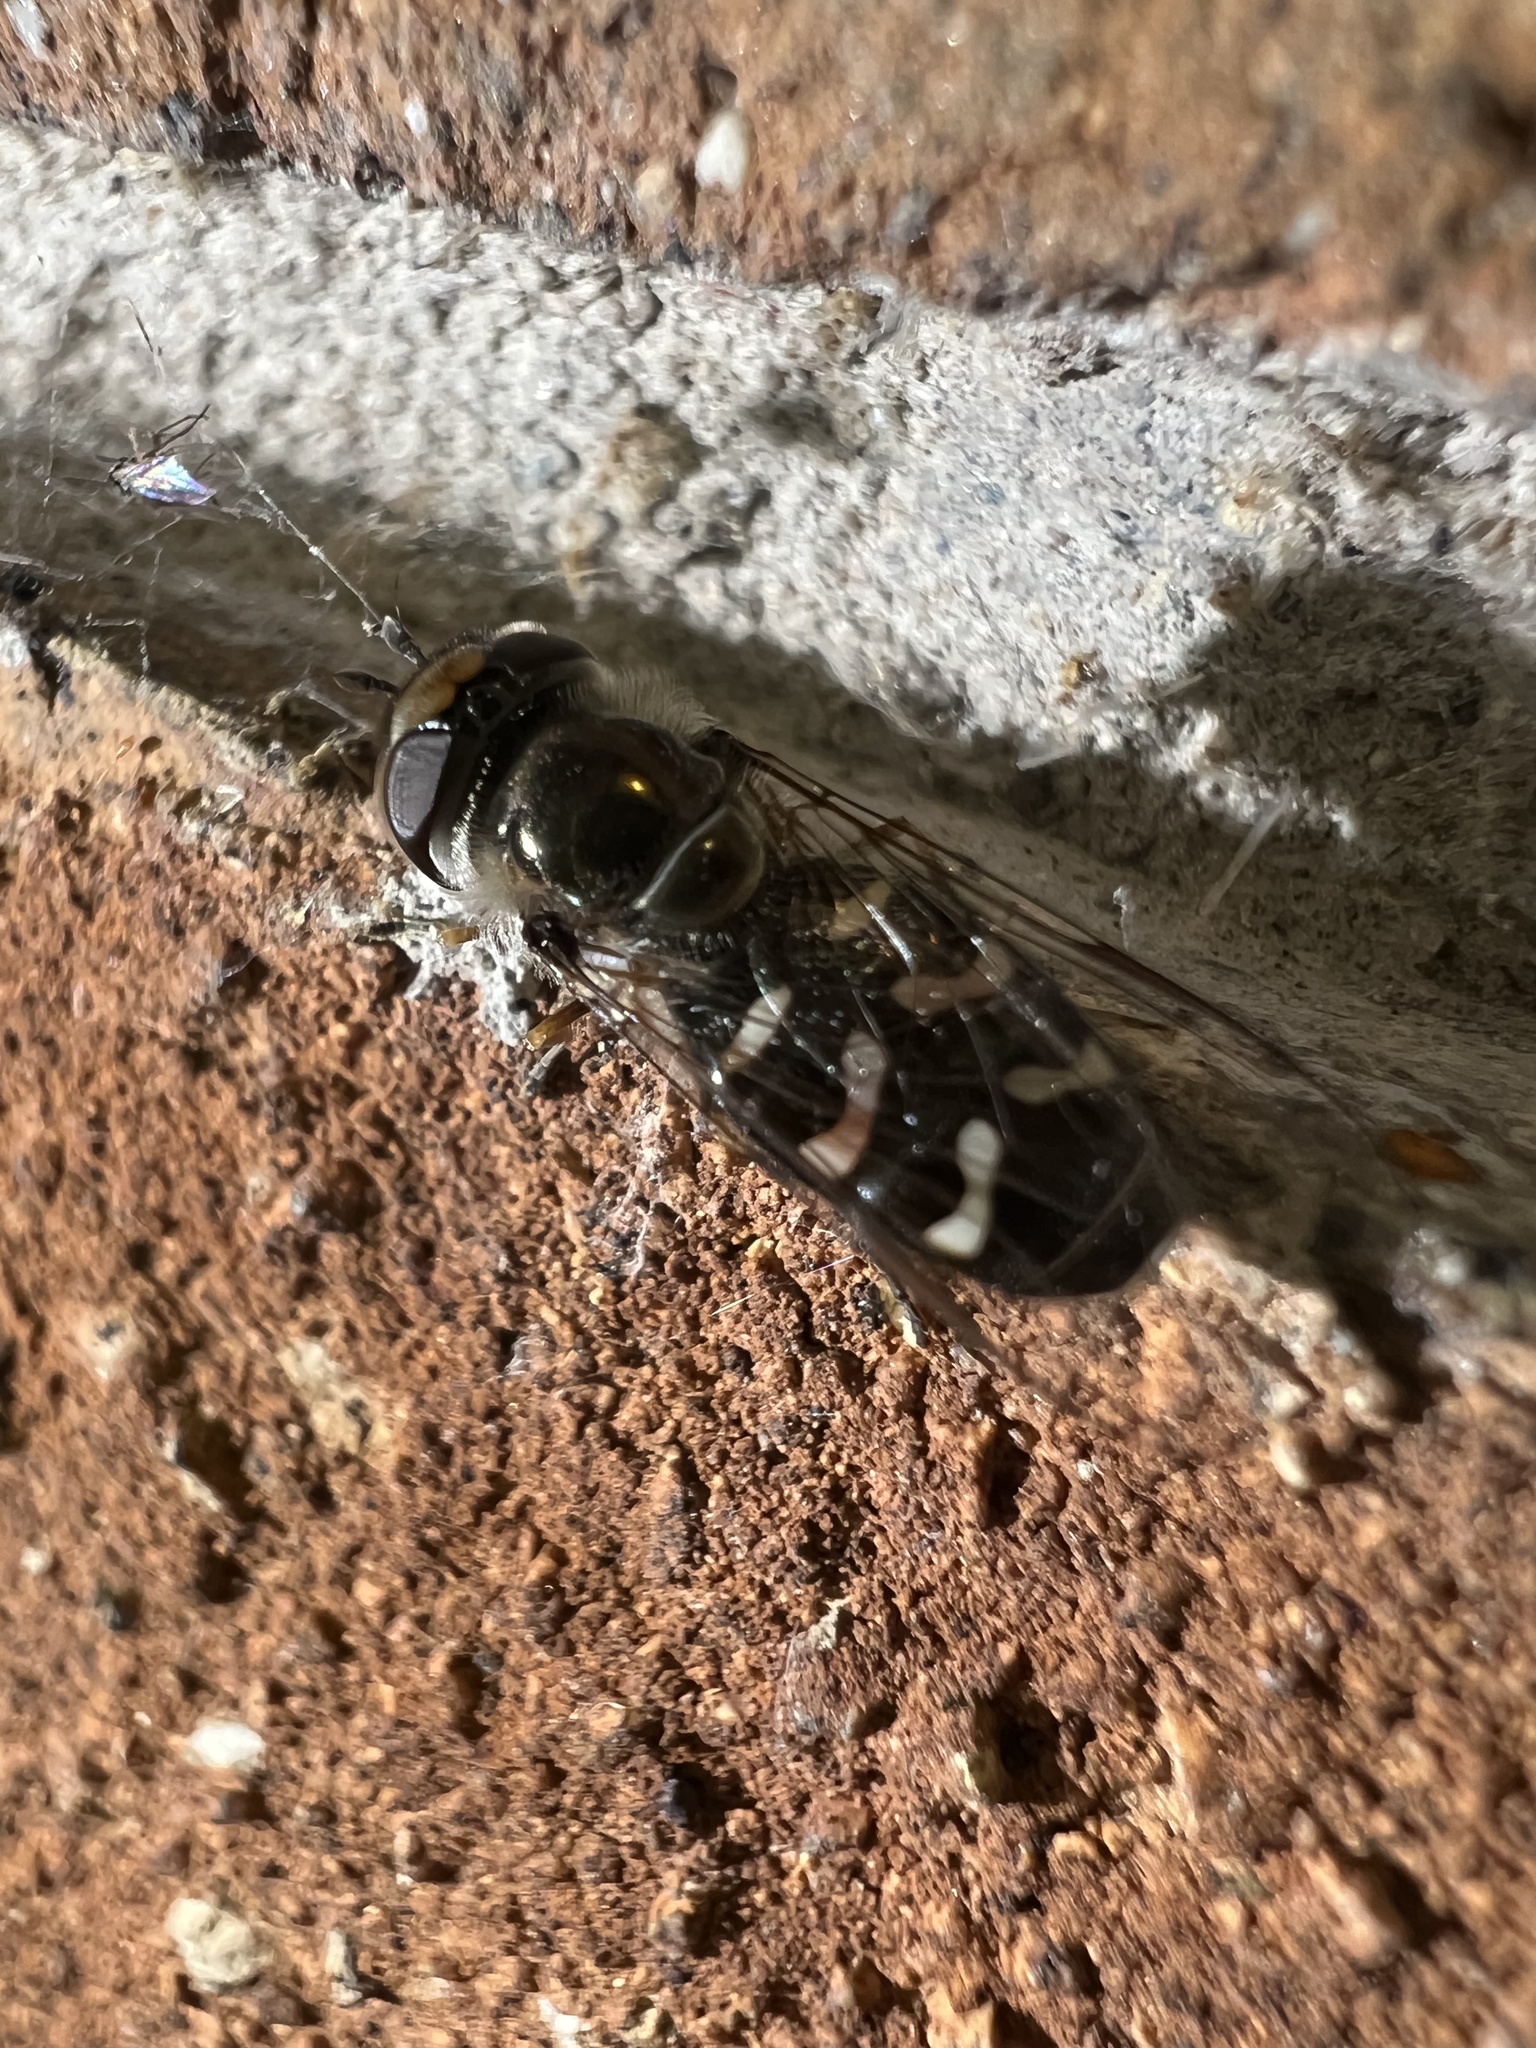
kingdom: Animalia
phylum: Arthropoda
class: Insecta
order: Diptera
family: Syrphidae
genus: Scaeva
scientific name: Scaeva affinis
